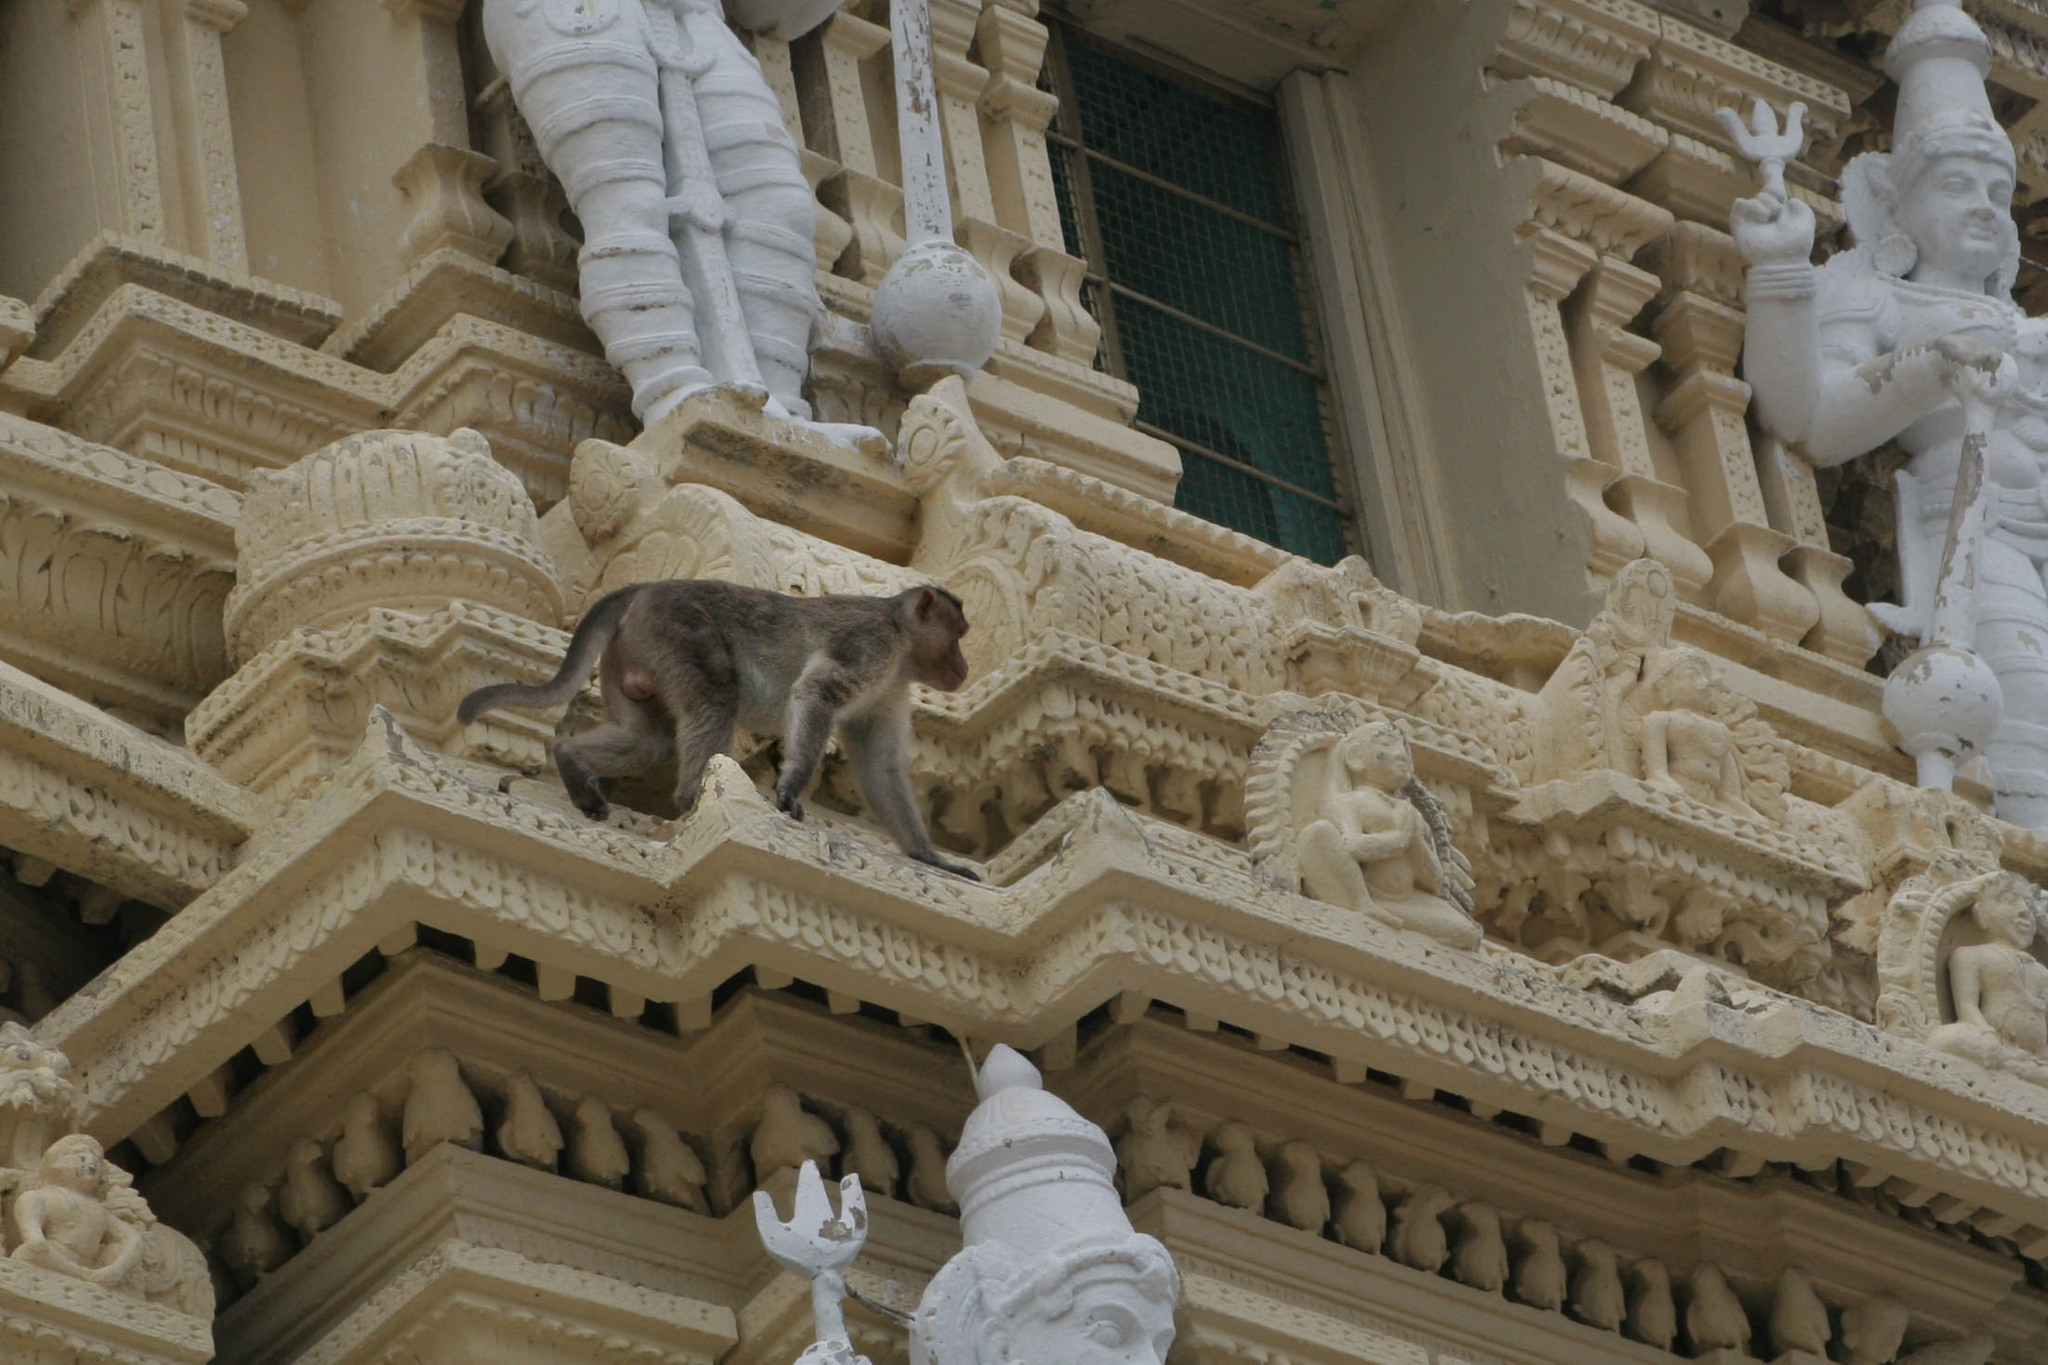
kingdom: Animalia
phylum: Chordata
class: Mammalia
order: Primates
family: Cercopithecidae
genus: Macaca
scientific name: Macaca radiata
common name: Bonnet macaque
